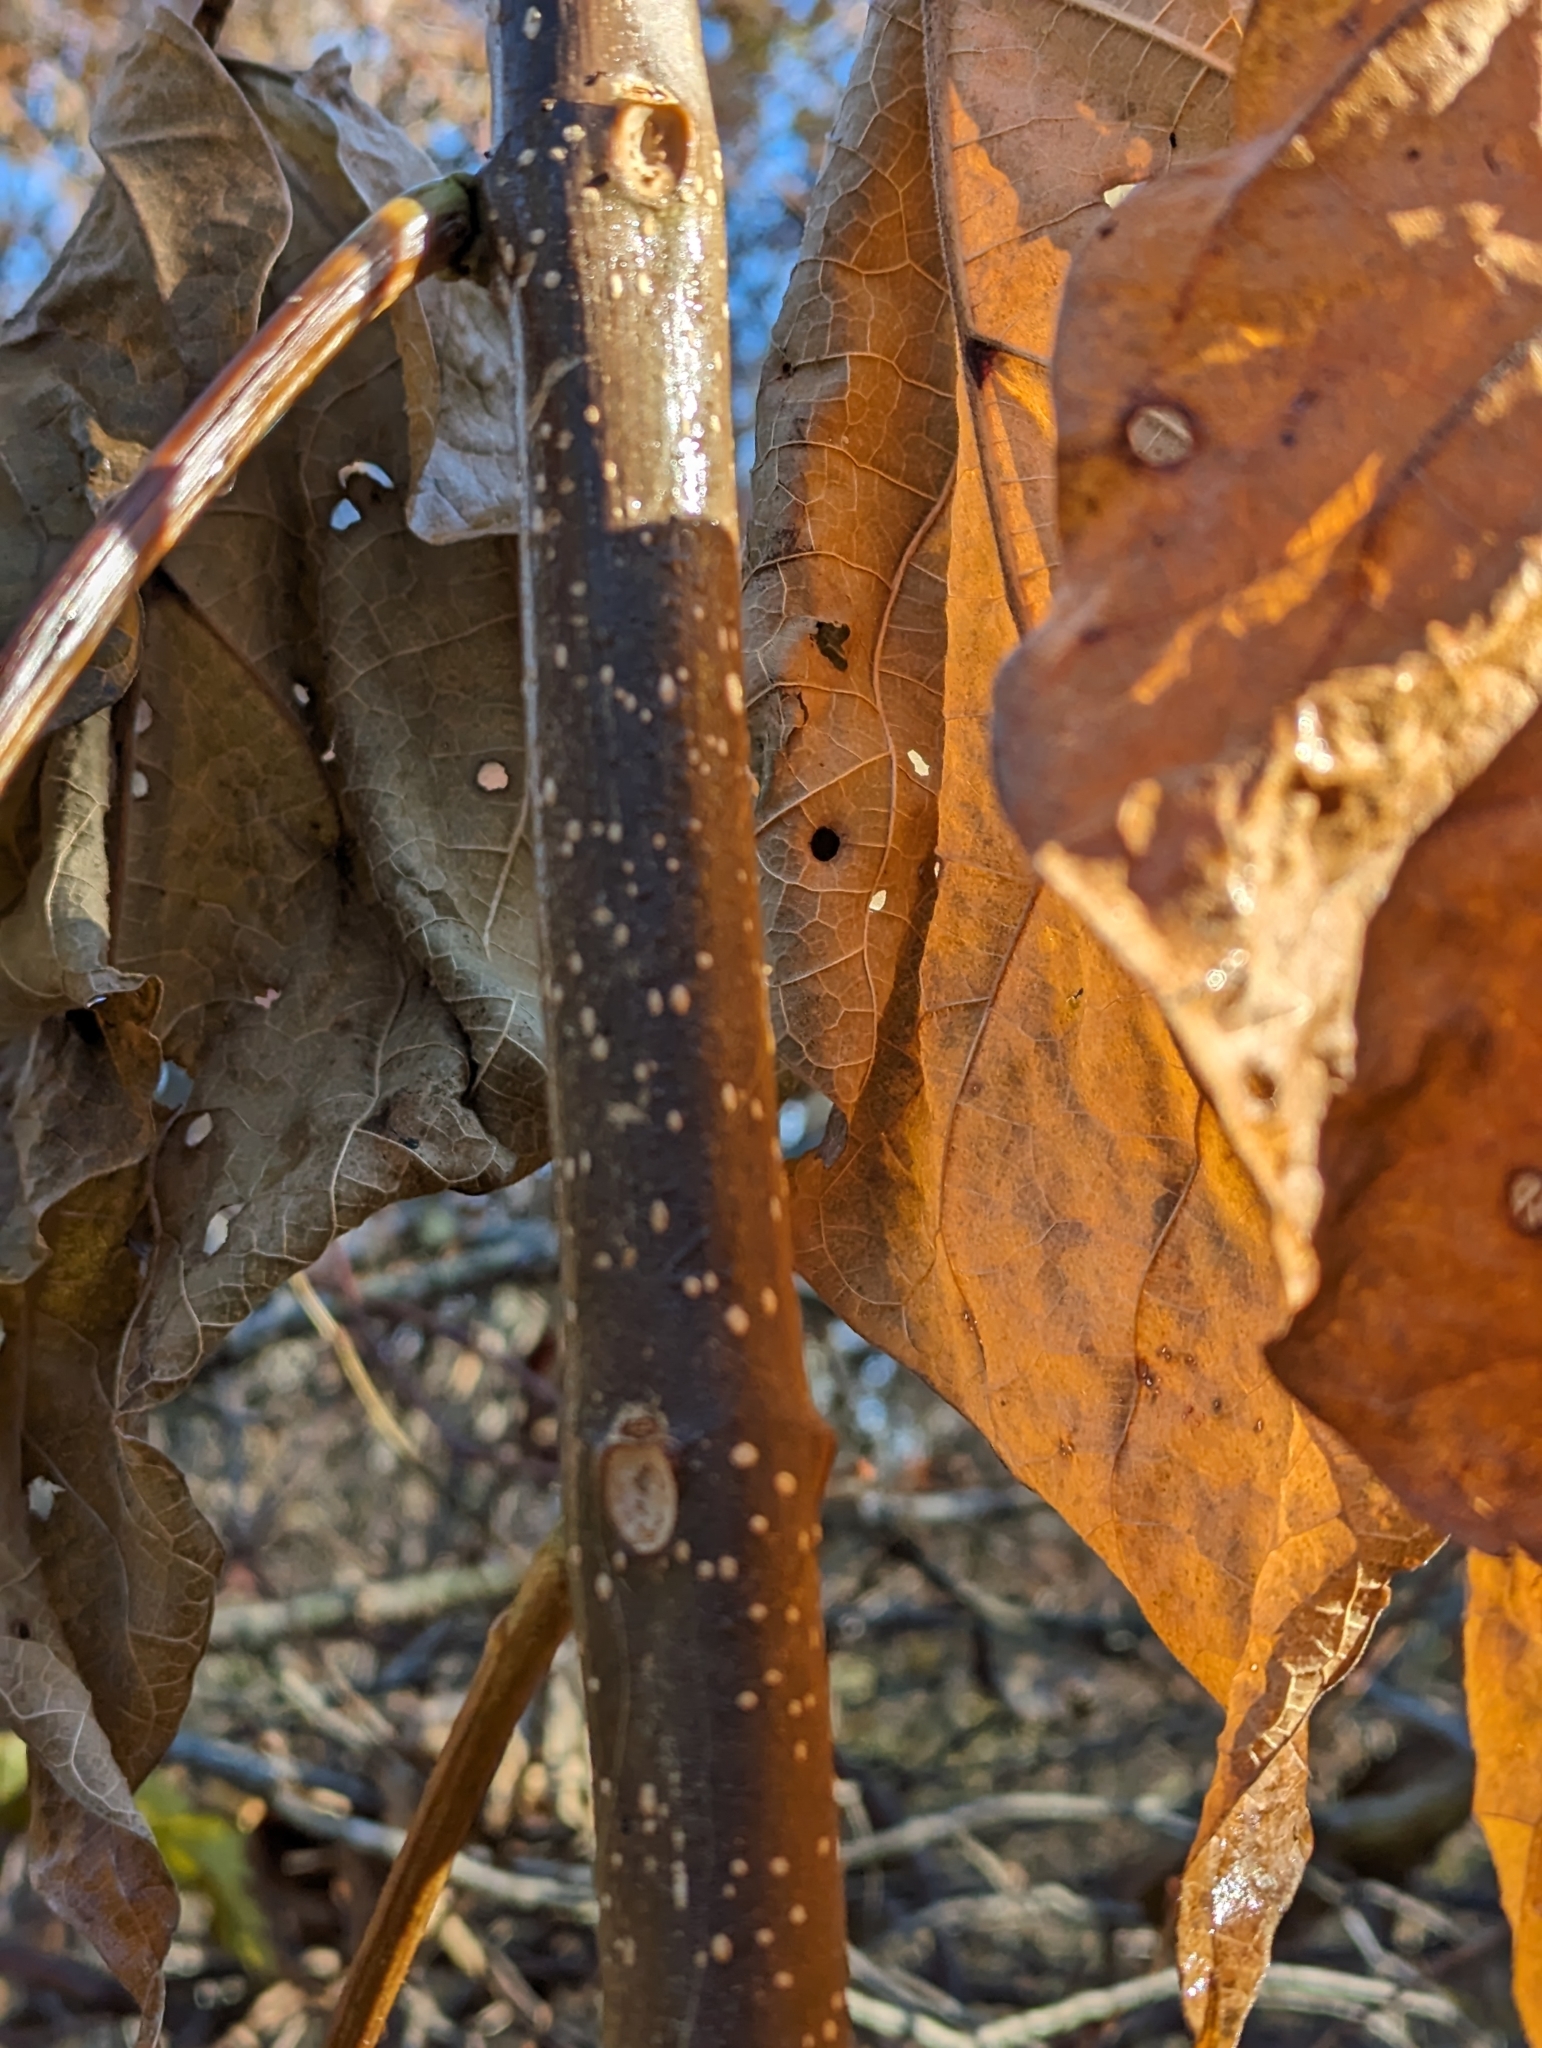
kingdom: Plantae
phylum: Tracheophyta
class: Magnoliopsida
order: Lamiales
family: Bignoniaceae
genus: Catalpa
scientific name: Catalpa speciosa
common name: Northern catalpa
